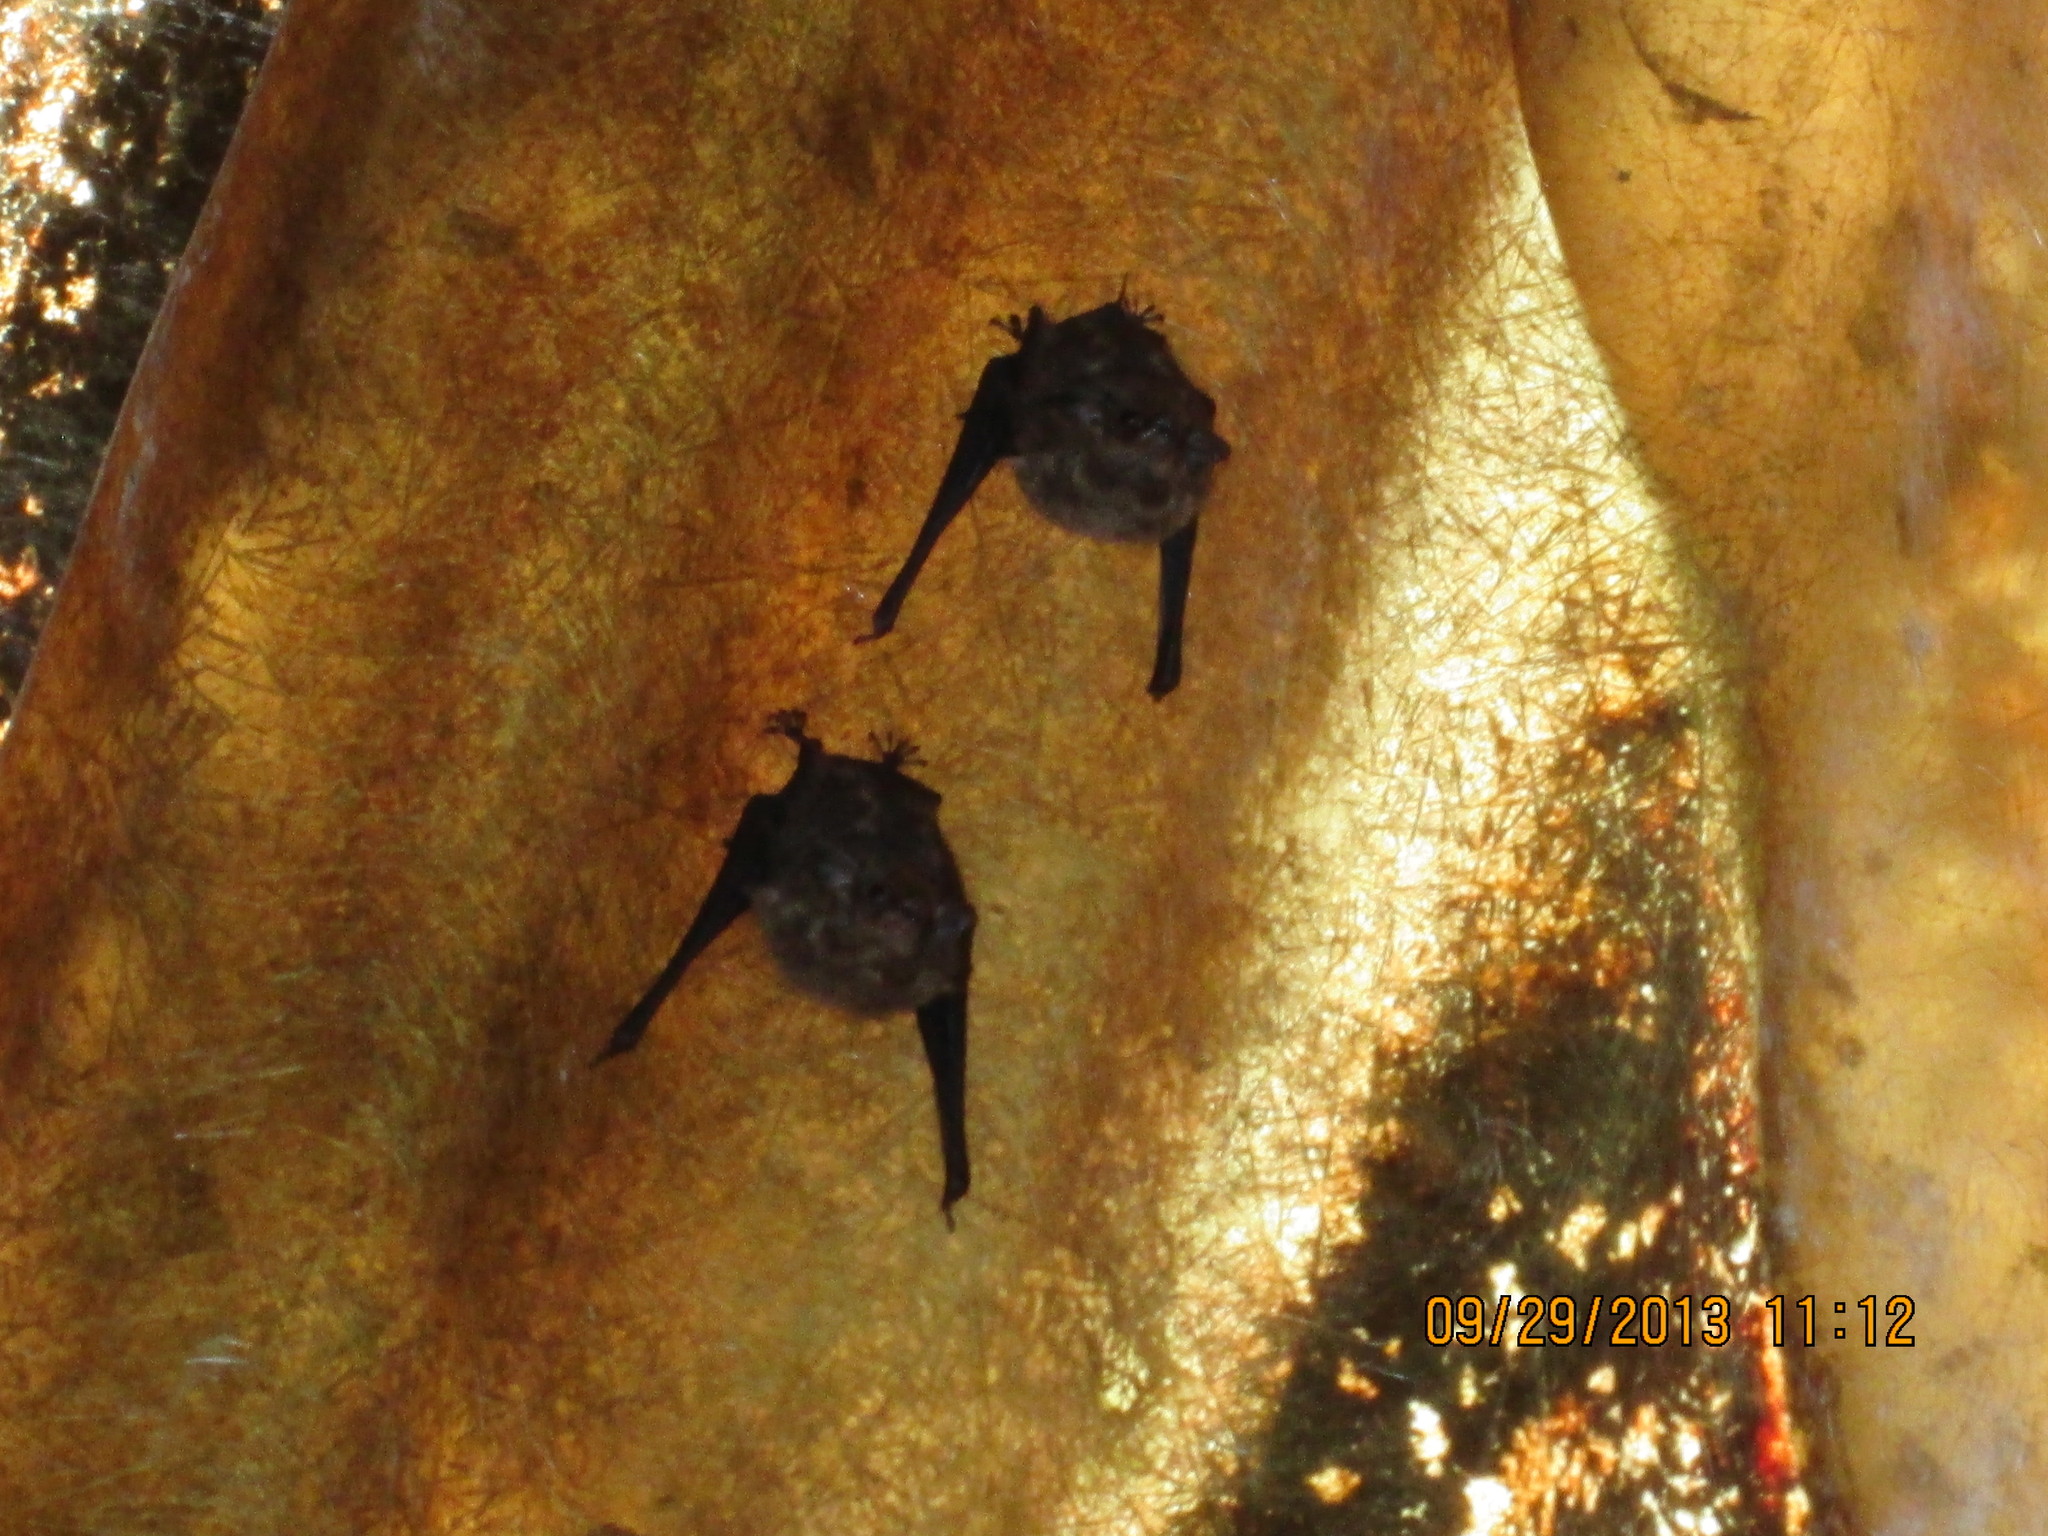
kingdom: Animalia
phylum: Chordata
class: Mammalia
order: Chiroptera
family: Emballonuridae
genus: Saccopteryx
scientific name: Saccopteryx
